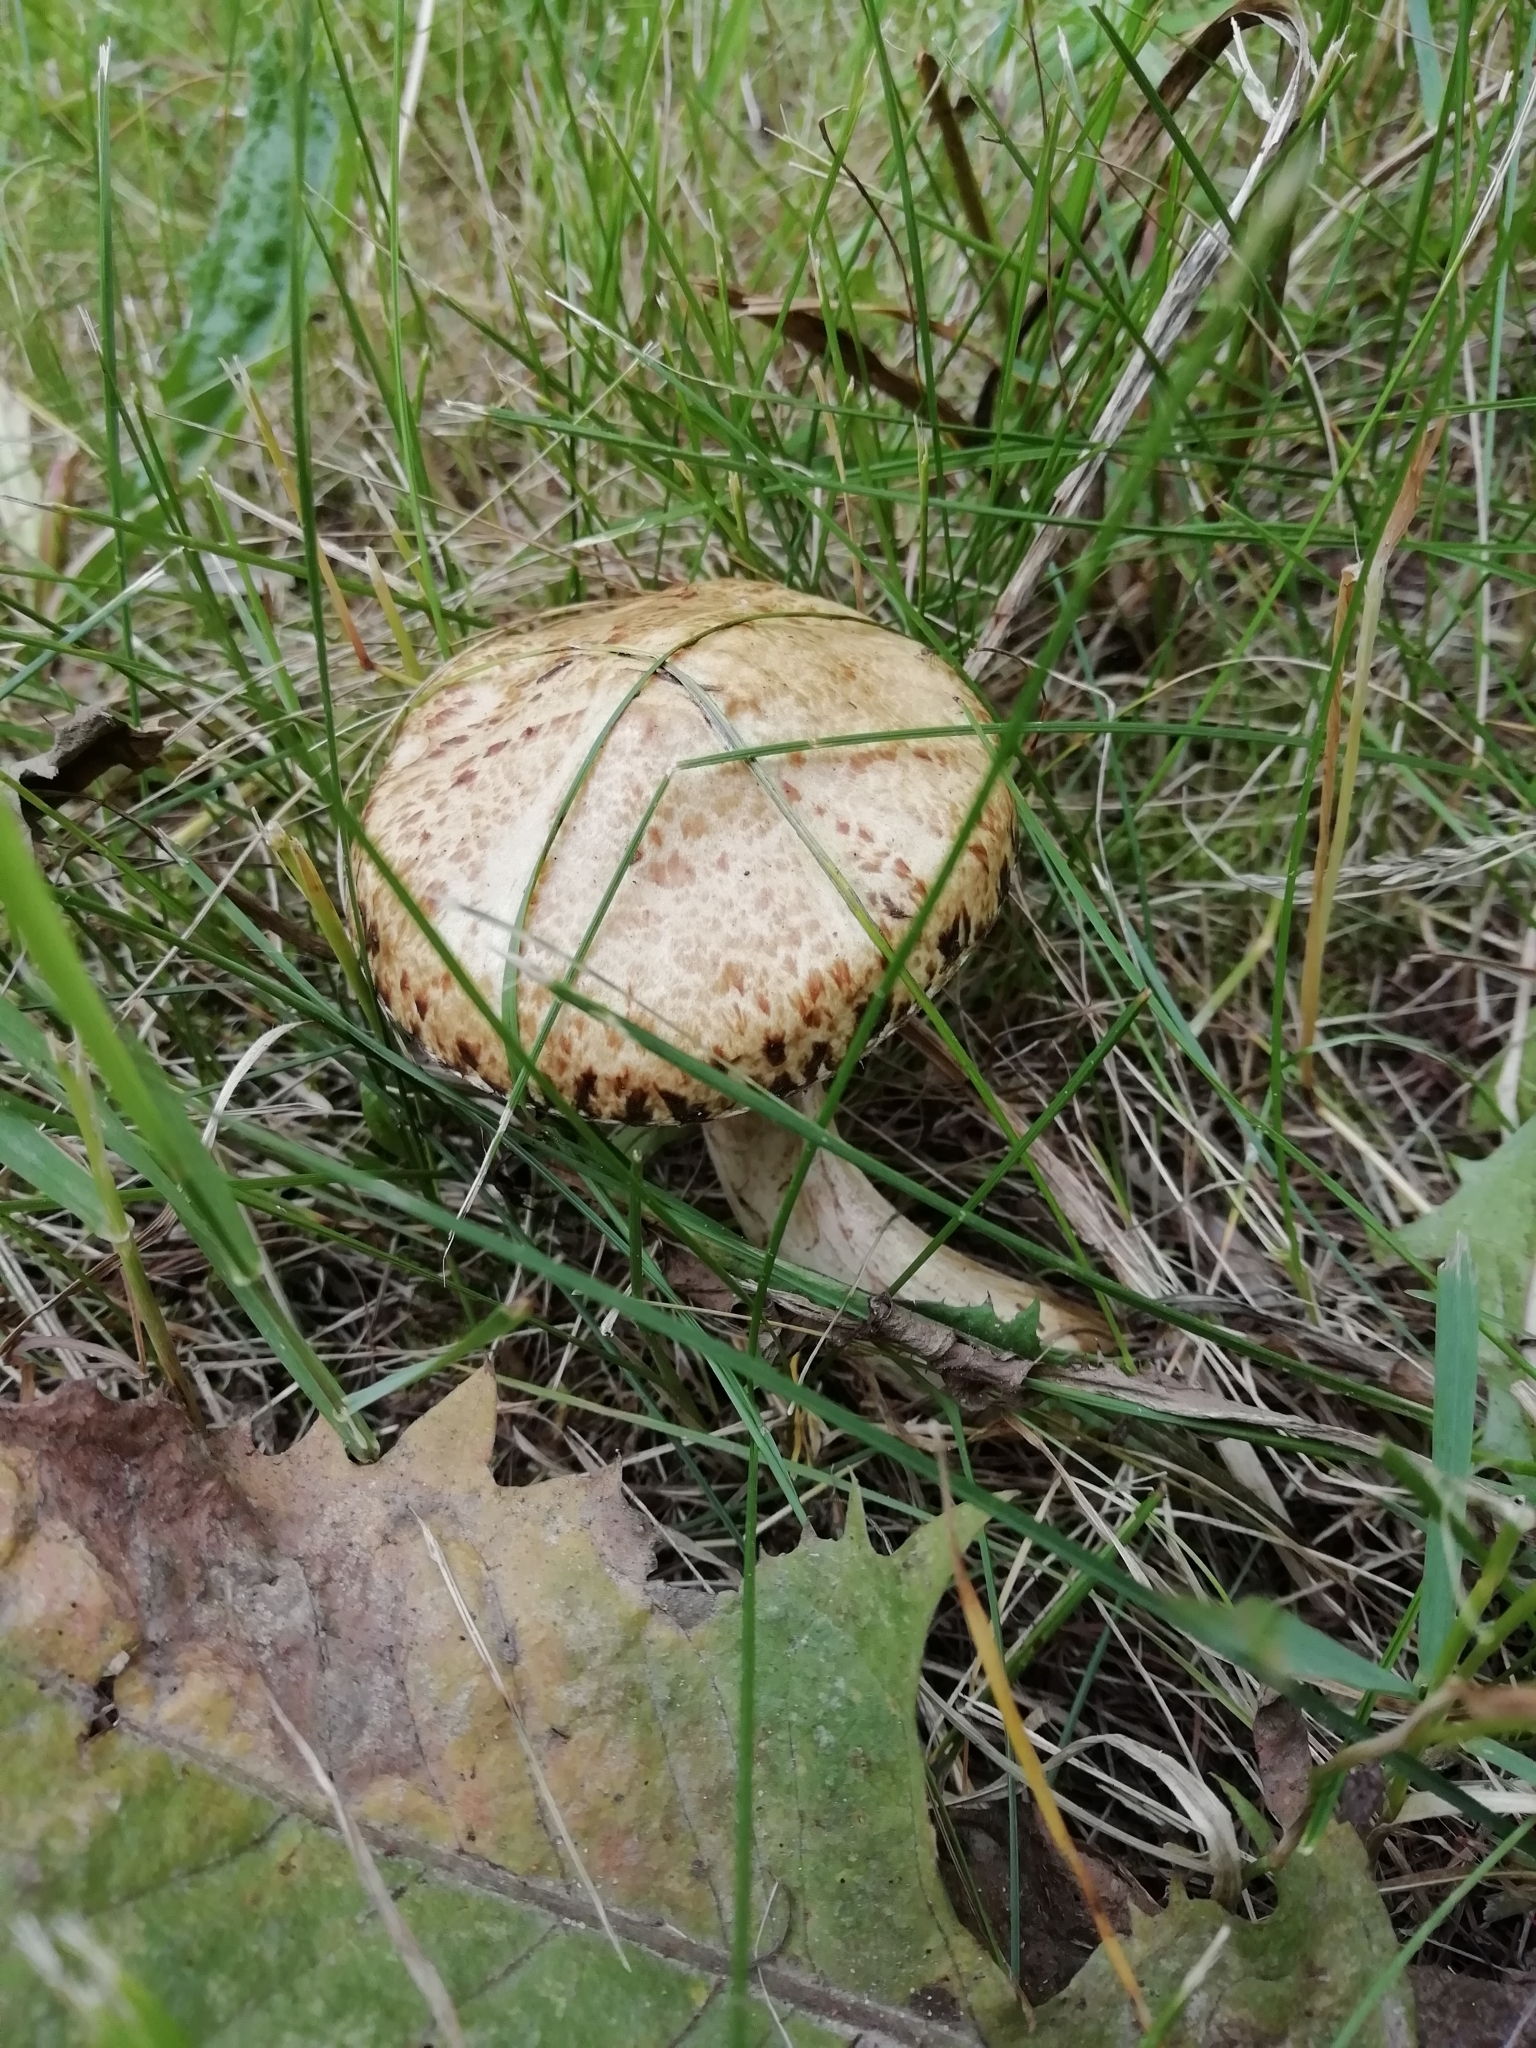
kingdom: Fungi
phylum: Basidiomycota
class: Agaricomycetes
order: Boletales
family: Suillaceae
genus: Suillus
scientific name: Suillus viscidus
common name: Sticky bolete
